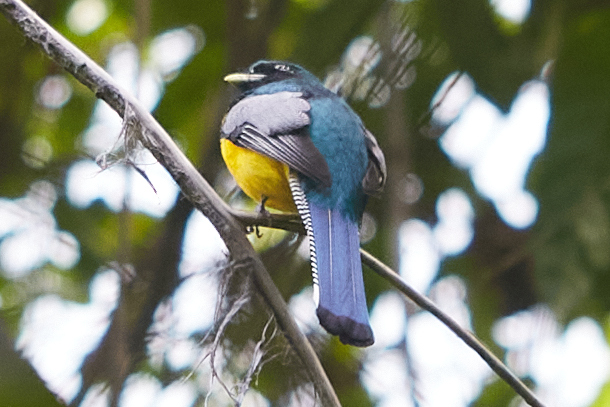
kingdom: Animalia
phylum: Chordata
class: Aves
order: Trogoniformes
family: Trogonidae
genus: Trogon
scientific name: Trogon rufus
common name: Black-throated trogon
